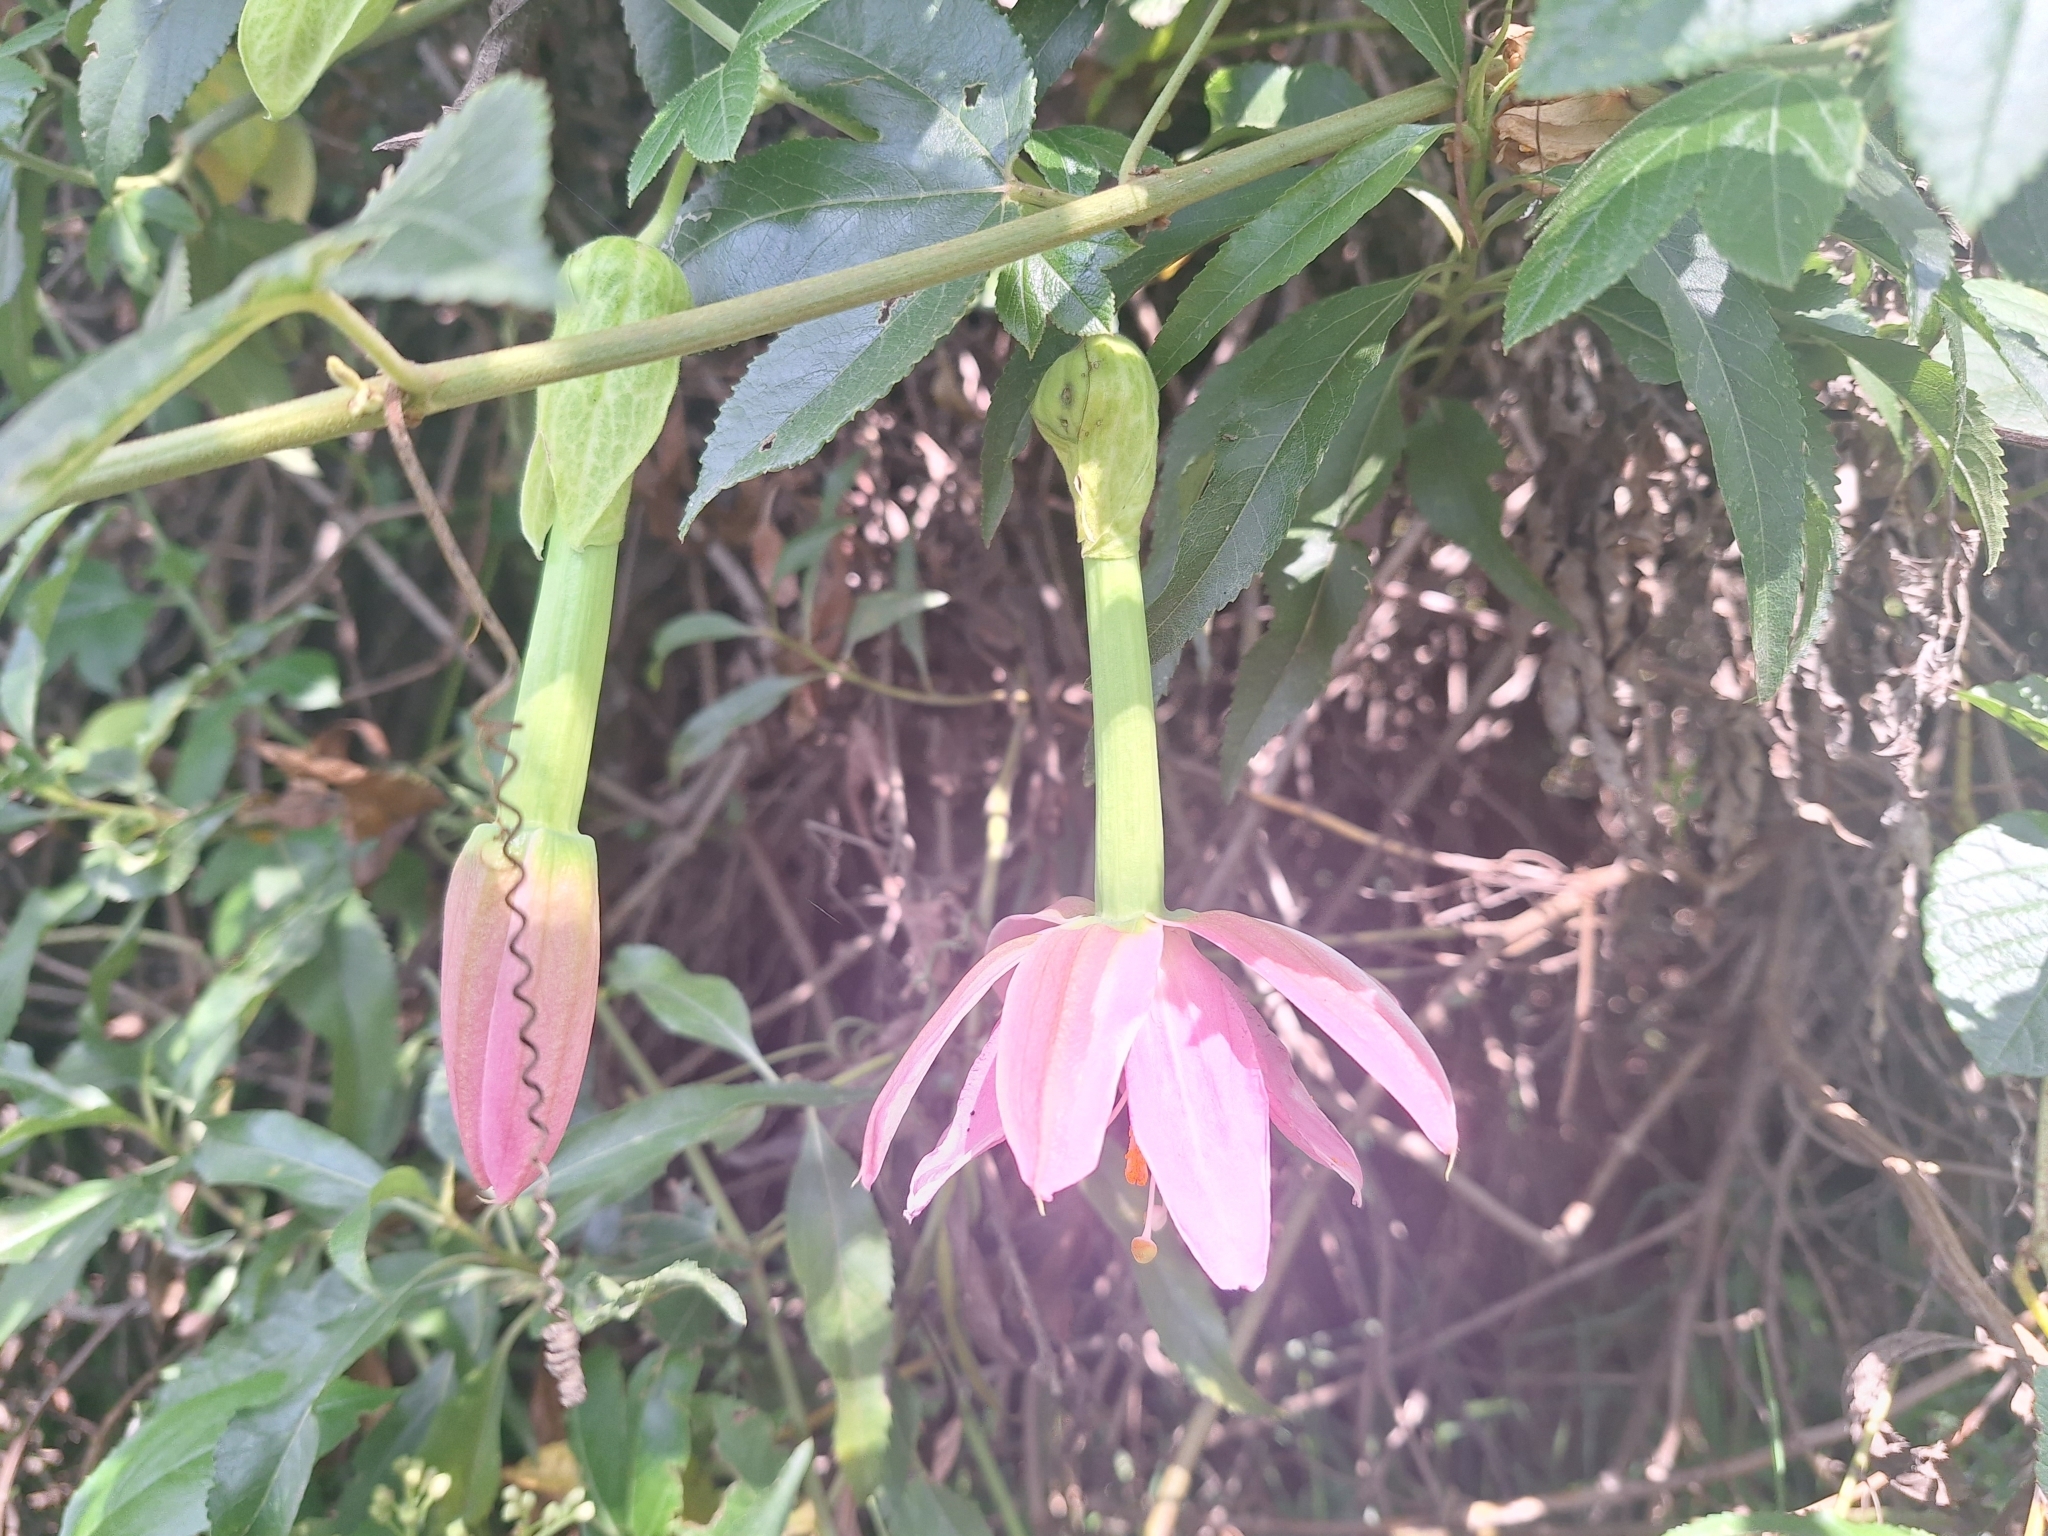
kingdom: Plantae
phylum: Tracheophyta
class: Magnoliopsida
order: Malpighiales
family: Passifloraceae
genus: Passiflora
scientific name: Passiflora tarminiana
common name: Banana poka
